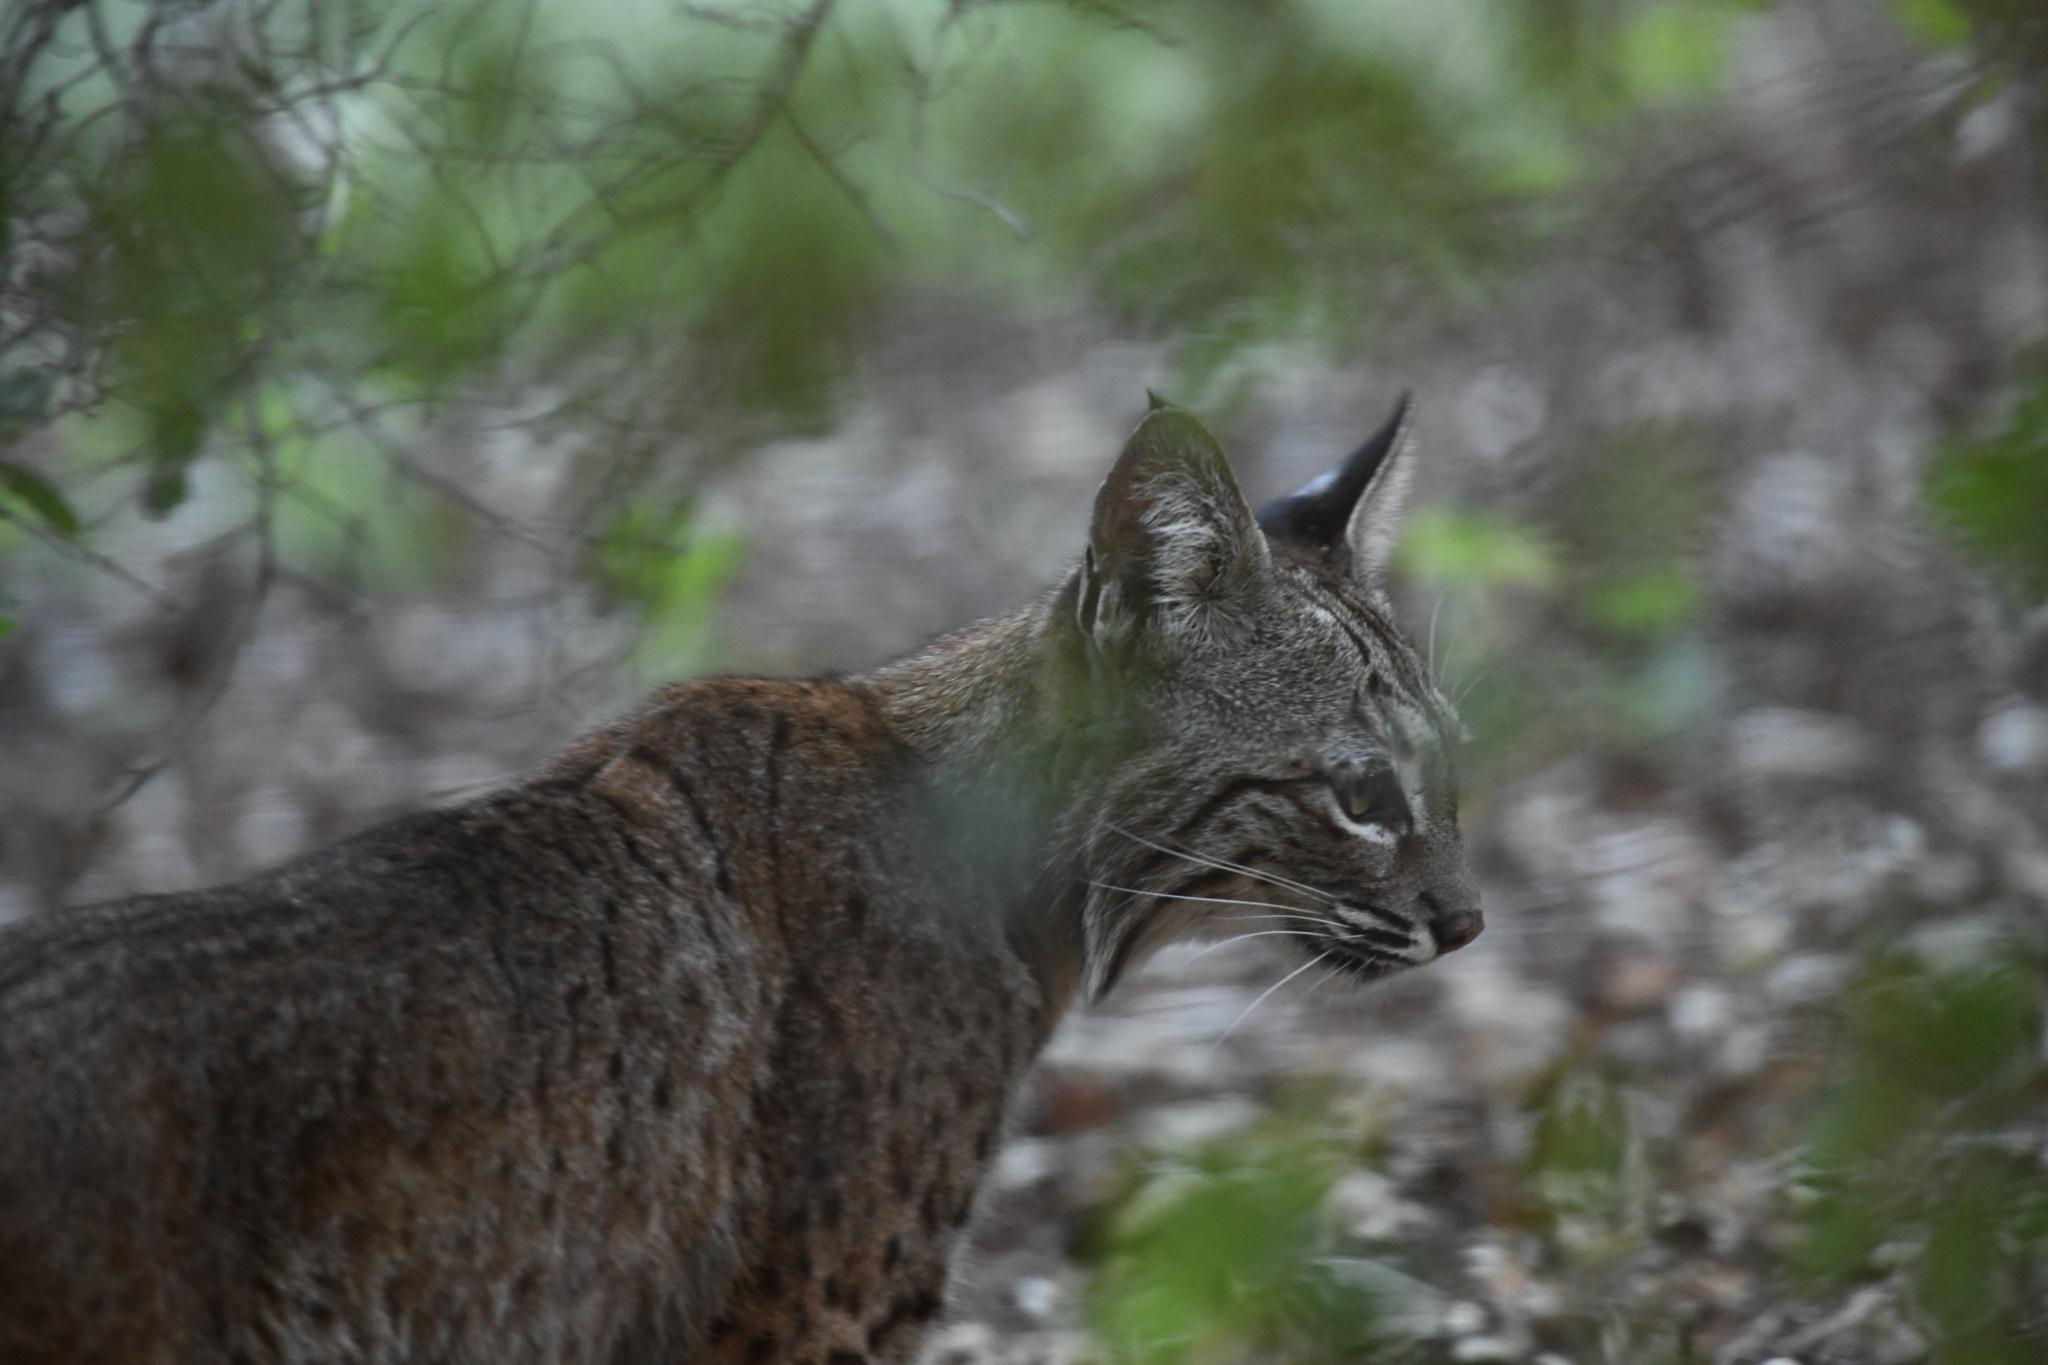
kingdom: Animalia
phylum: Chordata
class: Mammalia
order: Carnivora
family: Felidae
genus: Lynx
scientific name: Lynx rufus
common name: Bobcat
